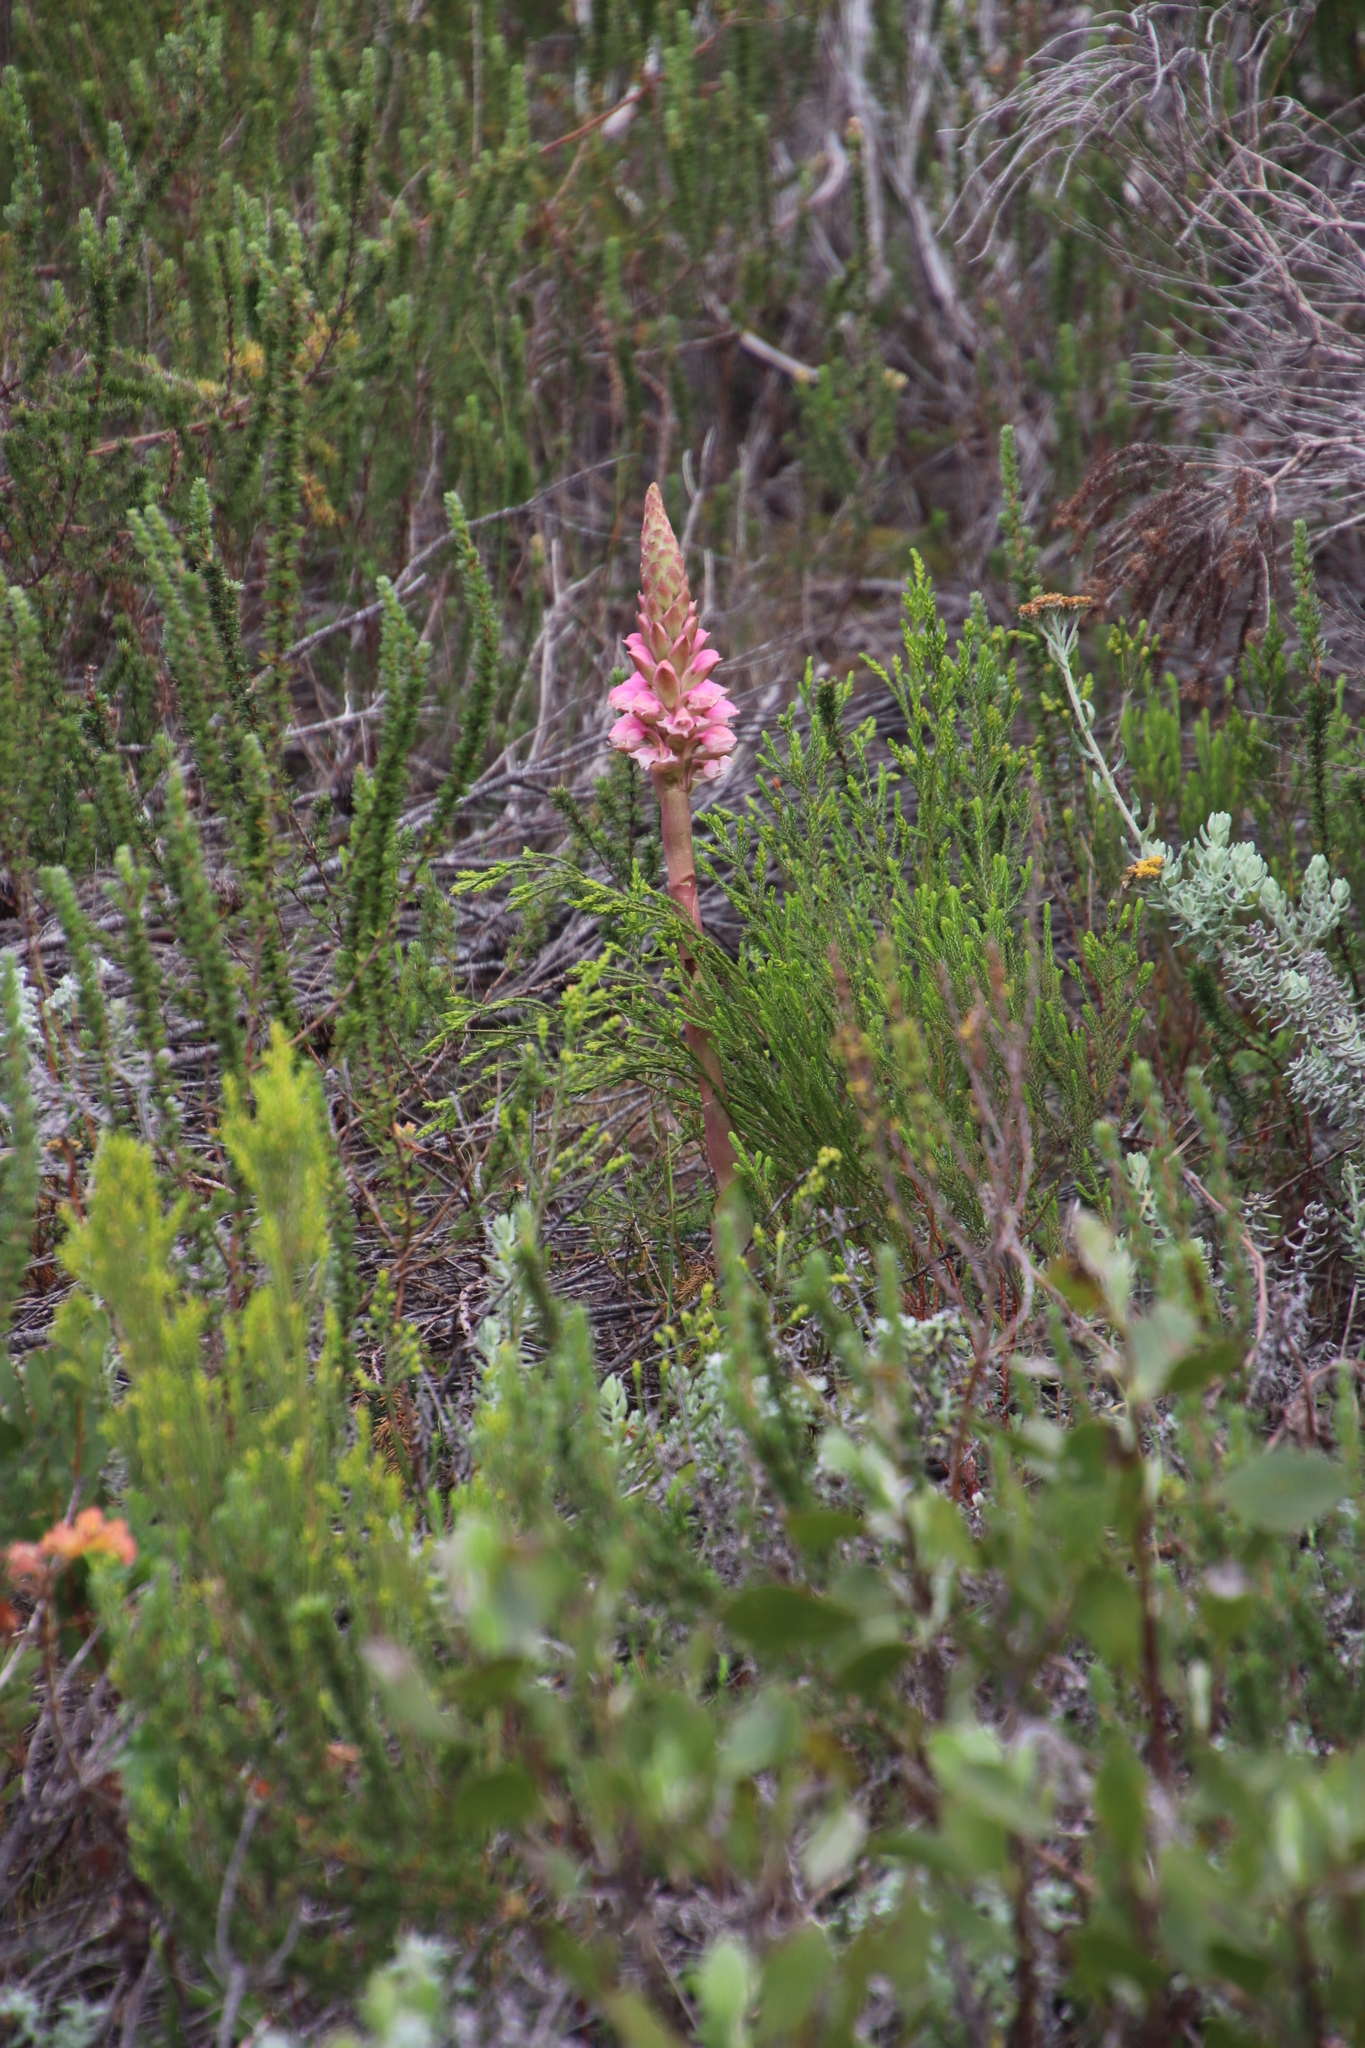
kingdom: Plantae
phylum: Tracheophyta
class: Liliopsida
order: Asparagales
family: Orchidaceae
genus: Satyrium
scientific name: Satyrium carneum
